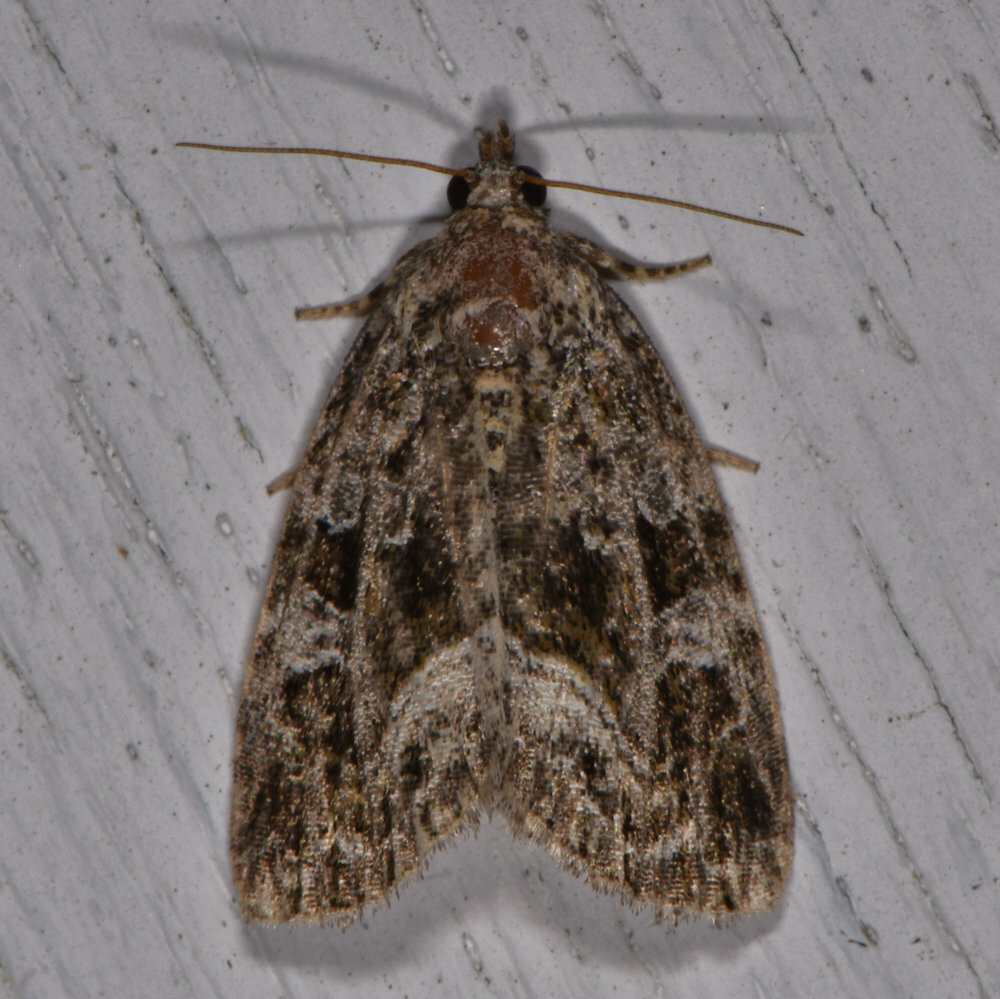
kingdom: Animalia
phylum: Arthropoda
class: Insecta
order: Lepidoptera
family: Noctuidae
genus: Protodeltote
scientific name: Protodeltote muscosula
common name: Large mossy glyph
